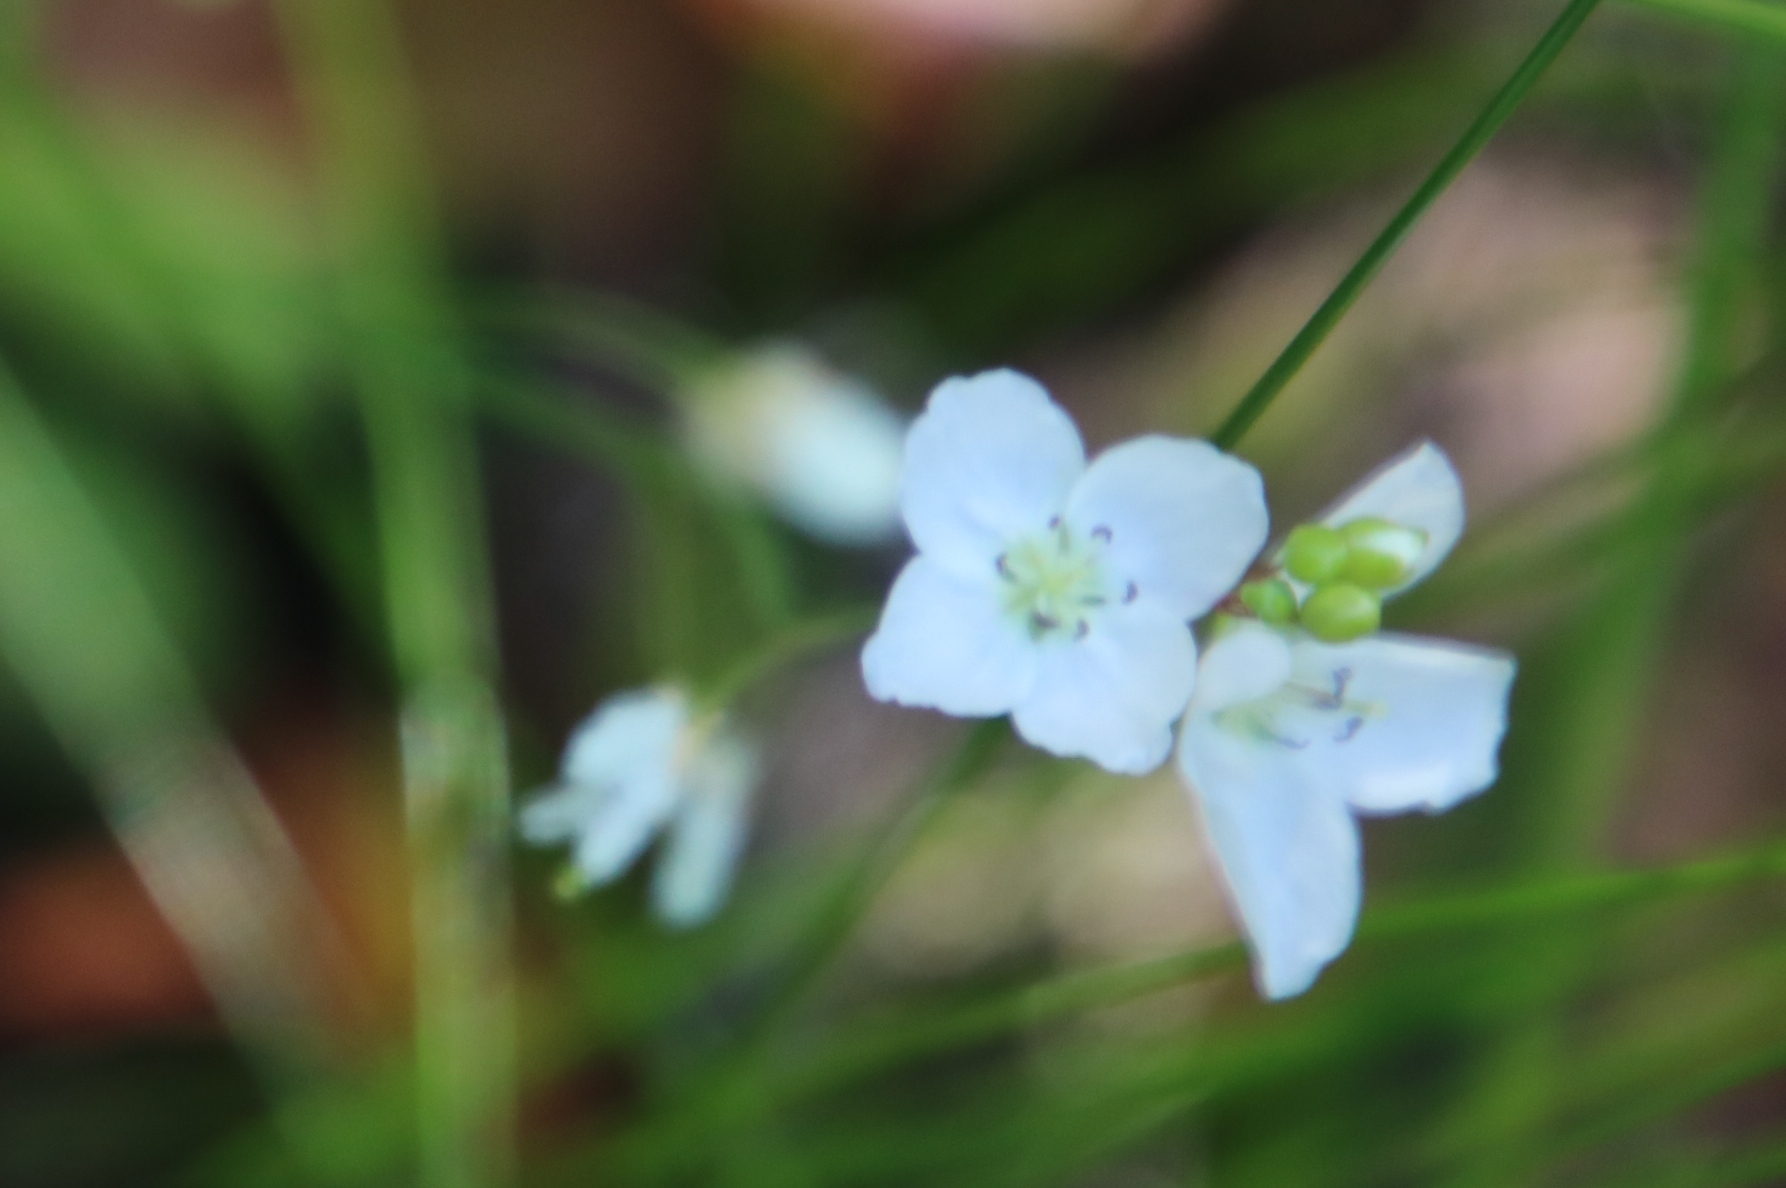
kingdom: Plantae
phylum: Tracheophyta
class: Magnoliopsida
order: Brassicales
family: Brassicaceae
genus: Heliophila
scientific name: Heliophila meyeri
